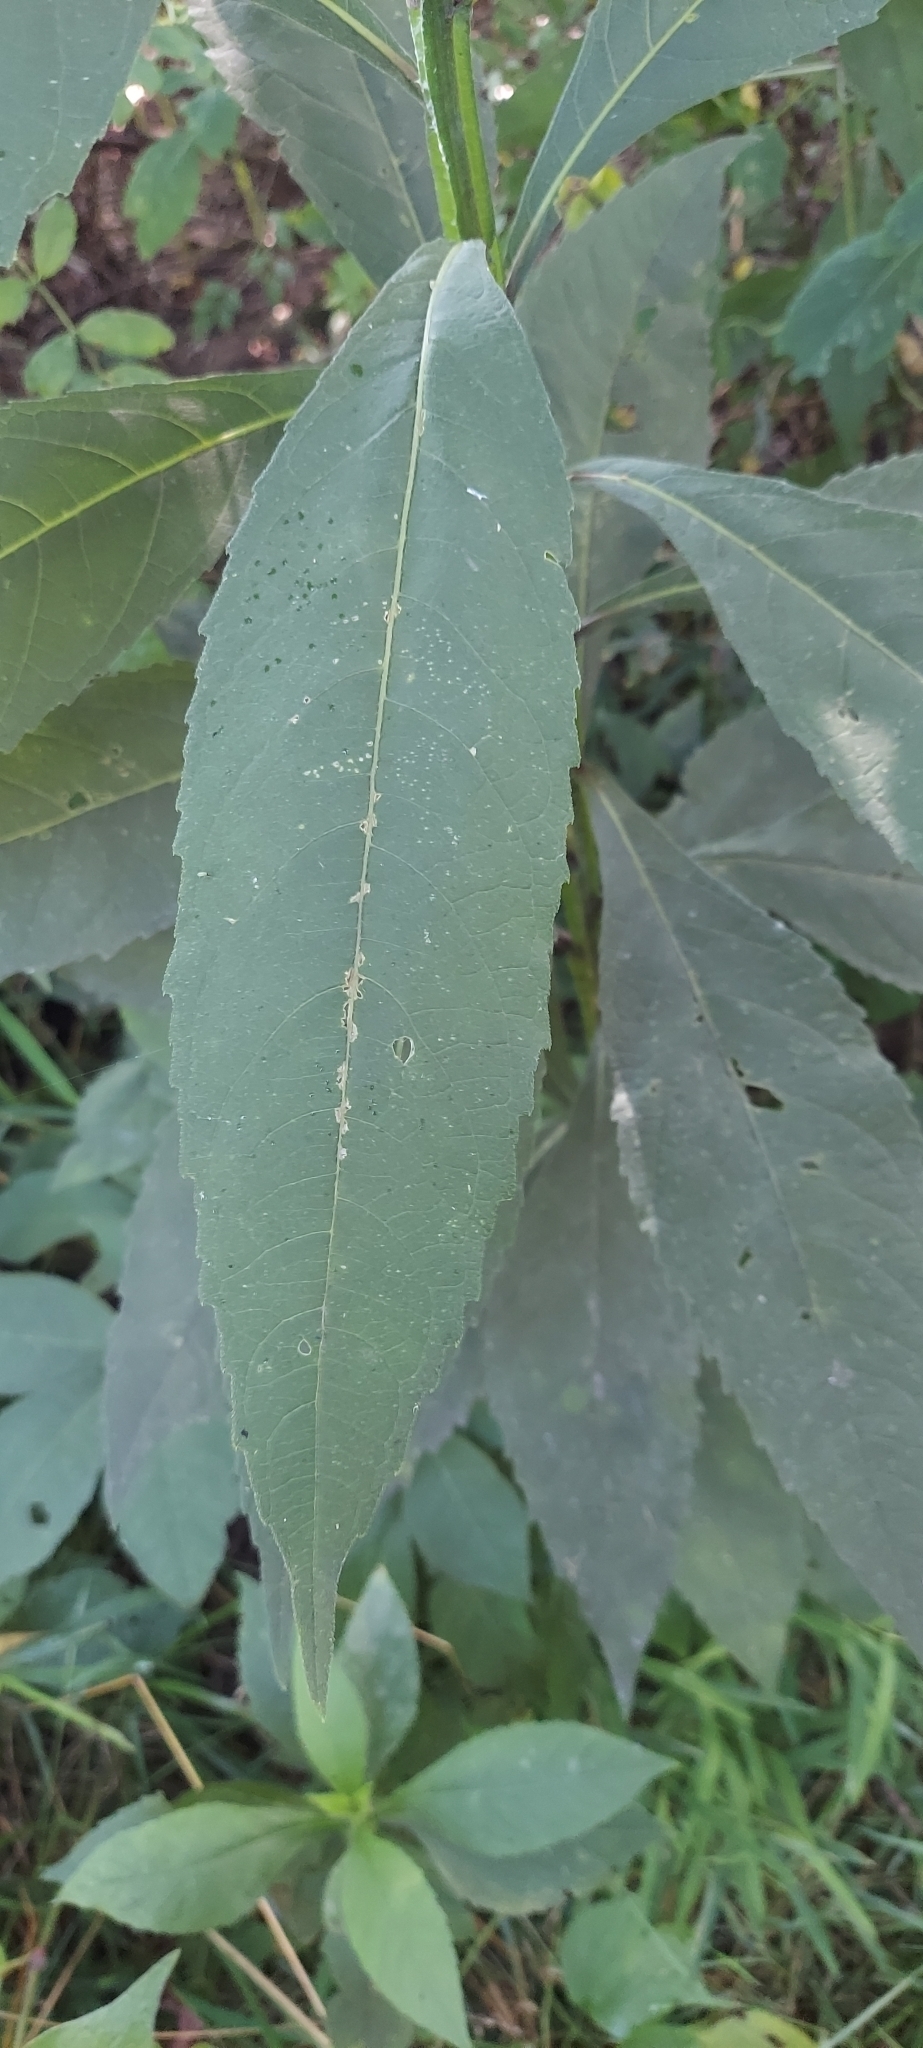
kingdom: Plantae
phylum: Tracheophyta
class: Magnoliopsida
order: Asterales
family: Asteraceae
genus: Verbesina
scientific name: Verbesina alternifolia
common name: Wingstem
